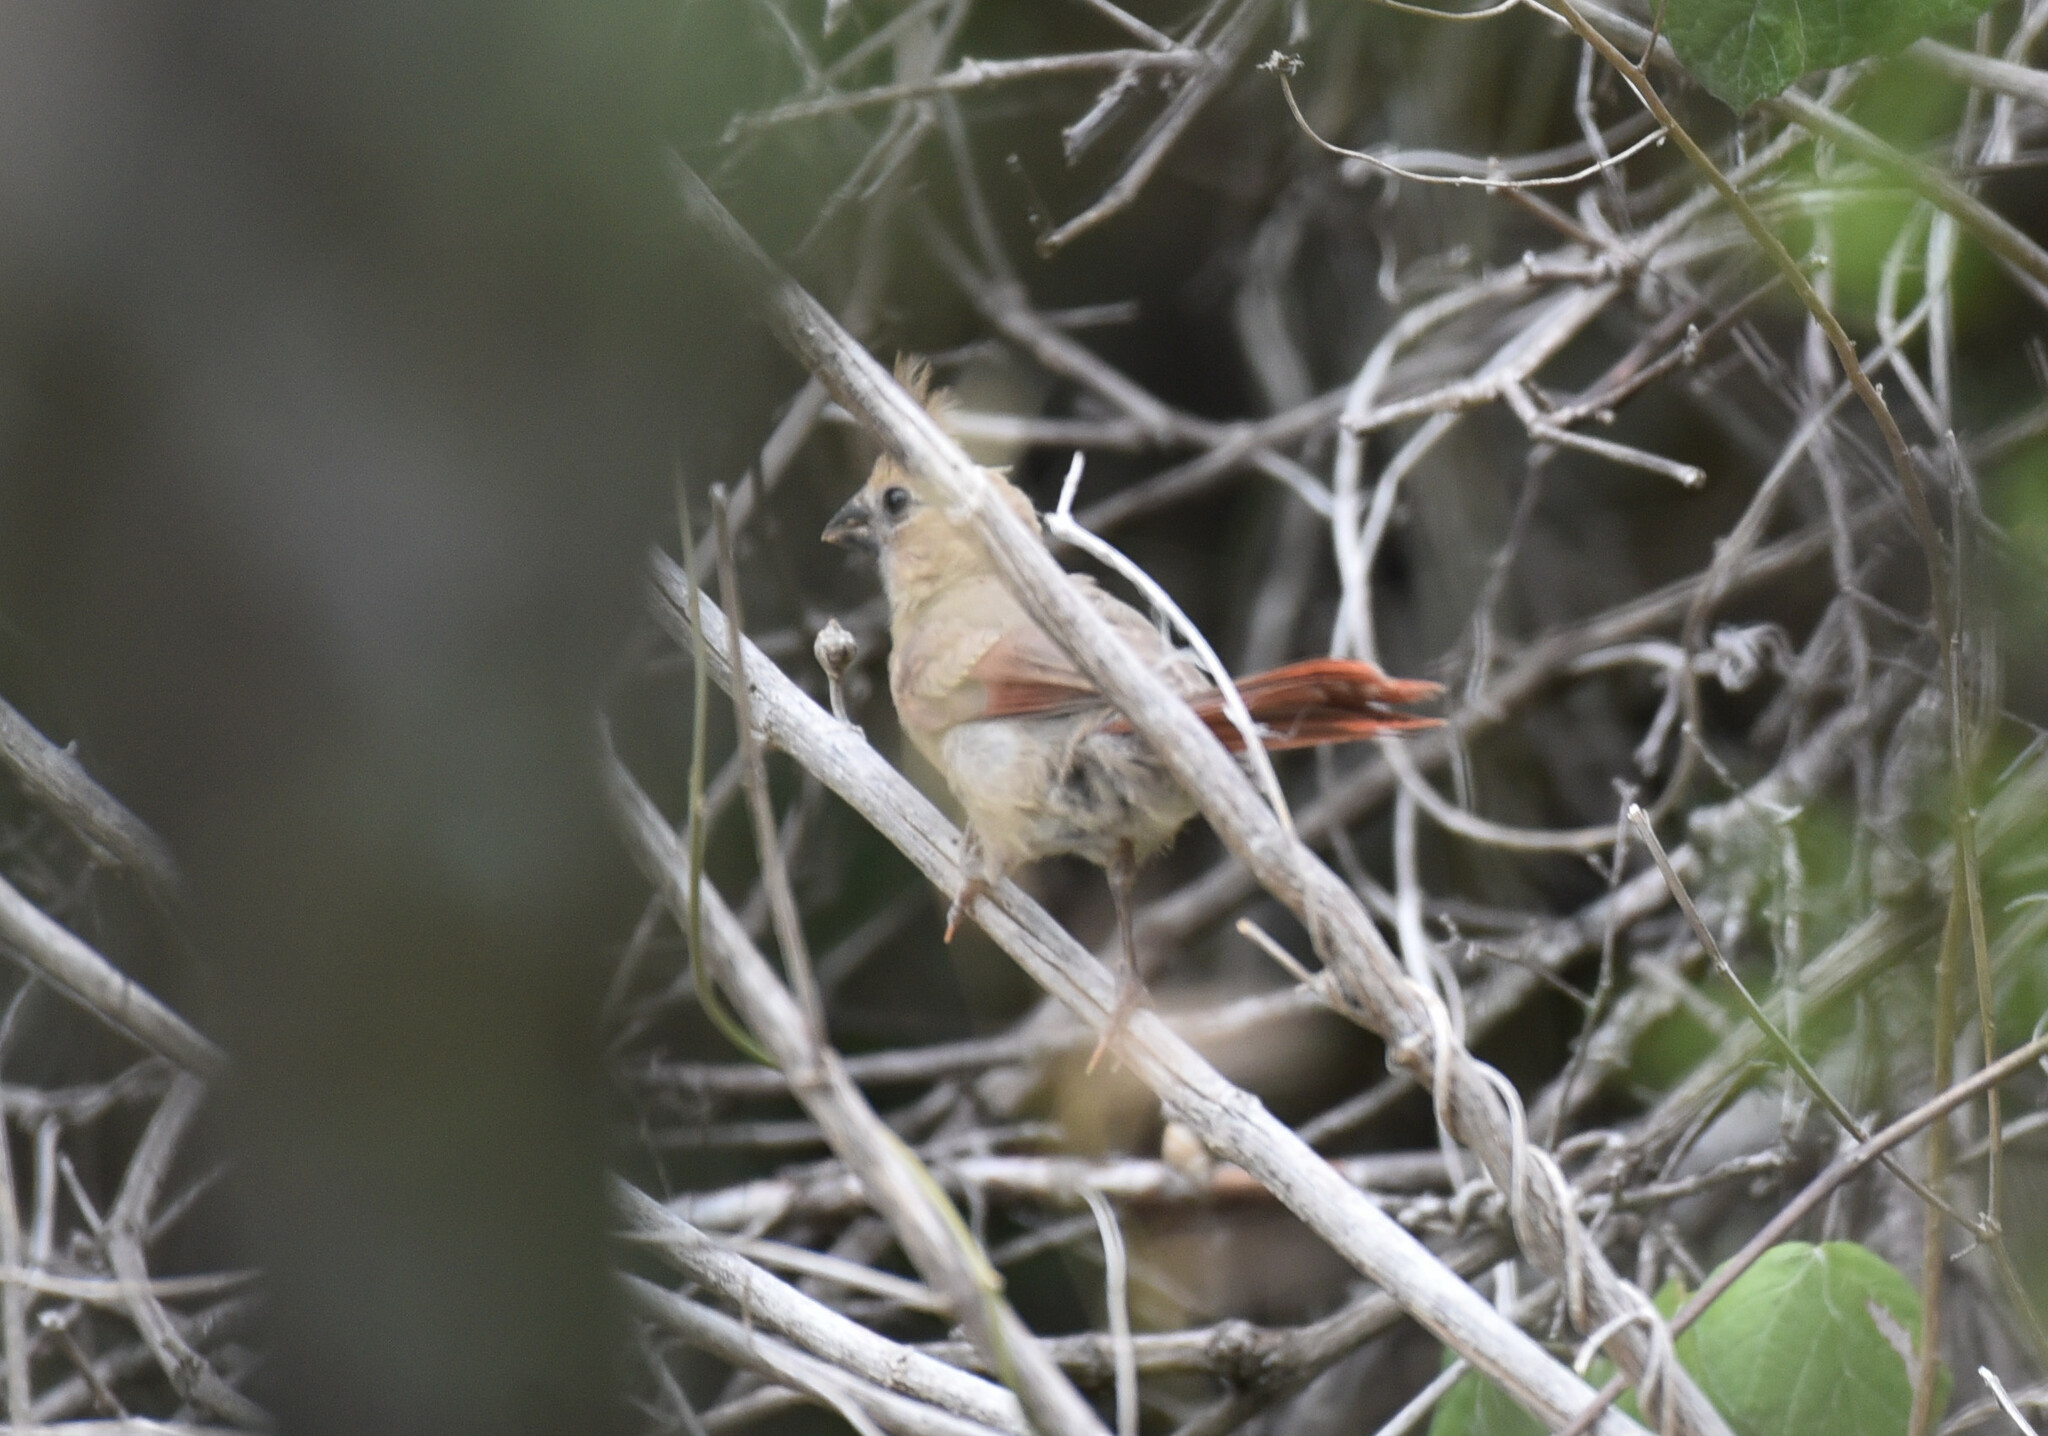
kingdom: Animalia
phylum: Chordata
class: Aves
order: Passeriformes
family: Cardinalidae
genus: Cardinalis
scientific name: Cardinalis cardinalis
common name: Northern cardinal
